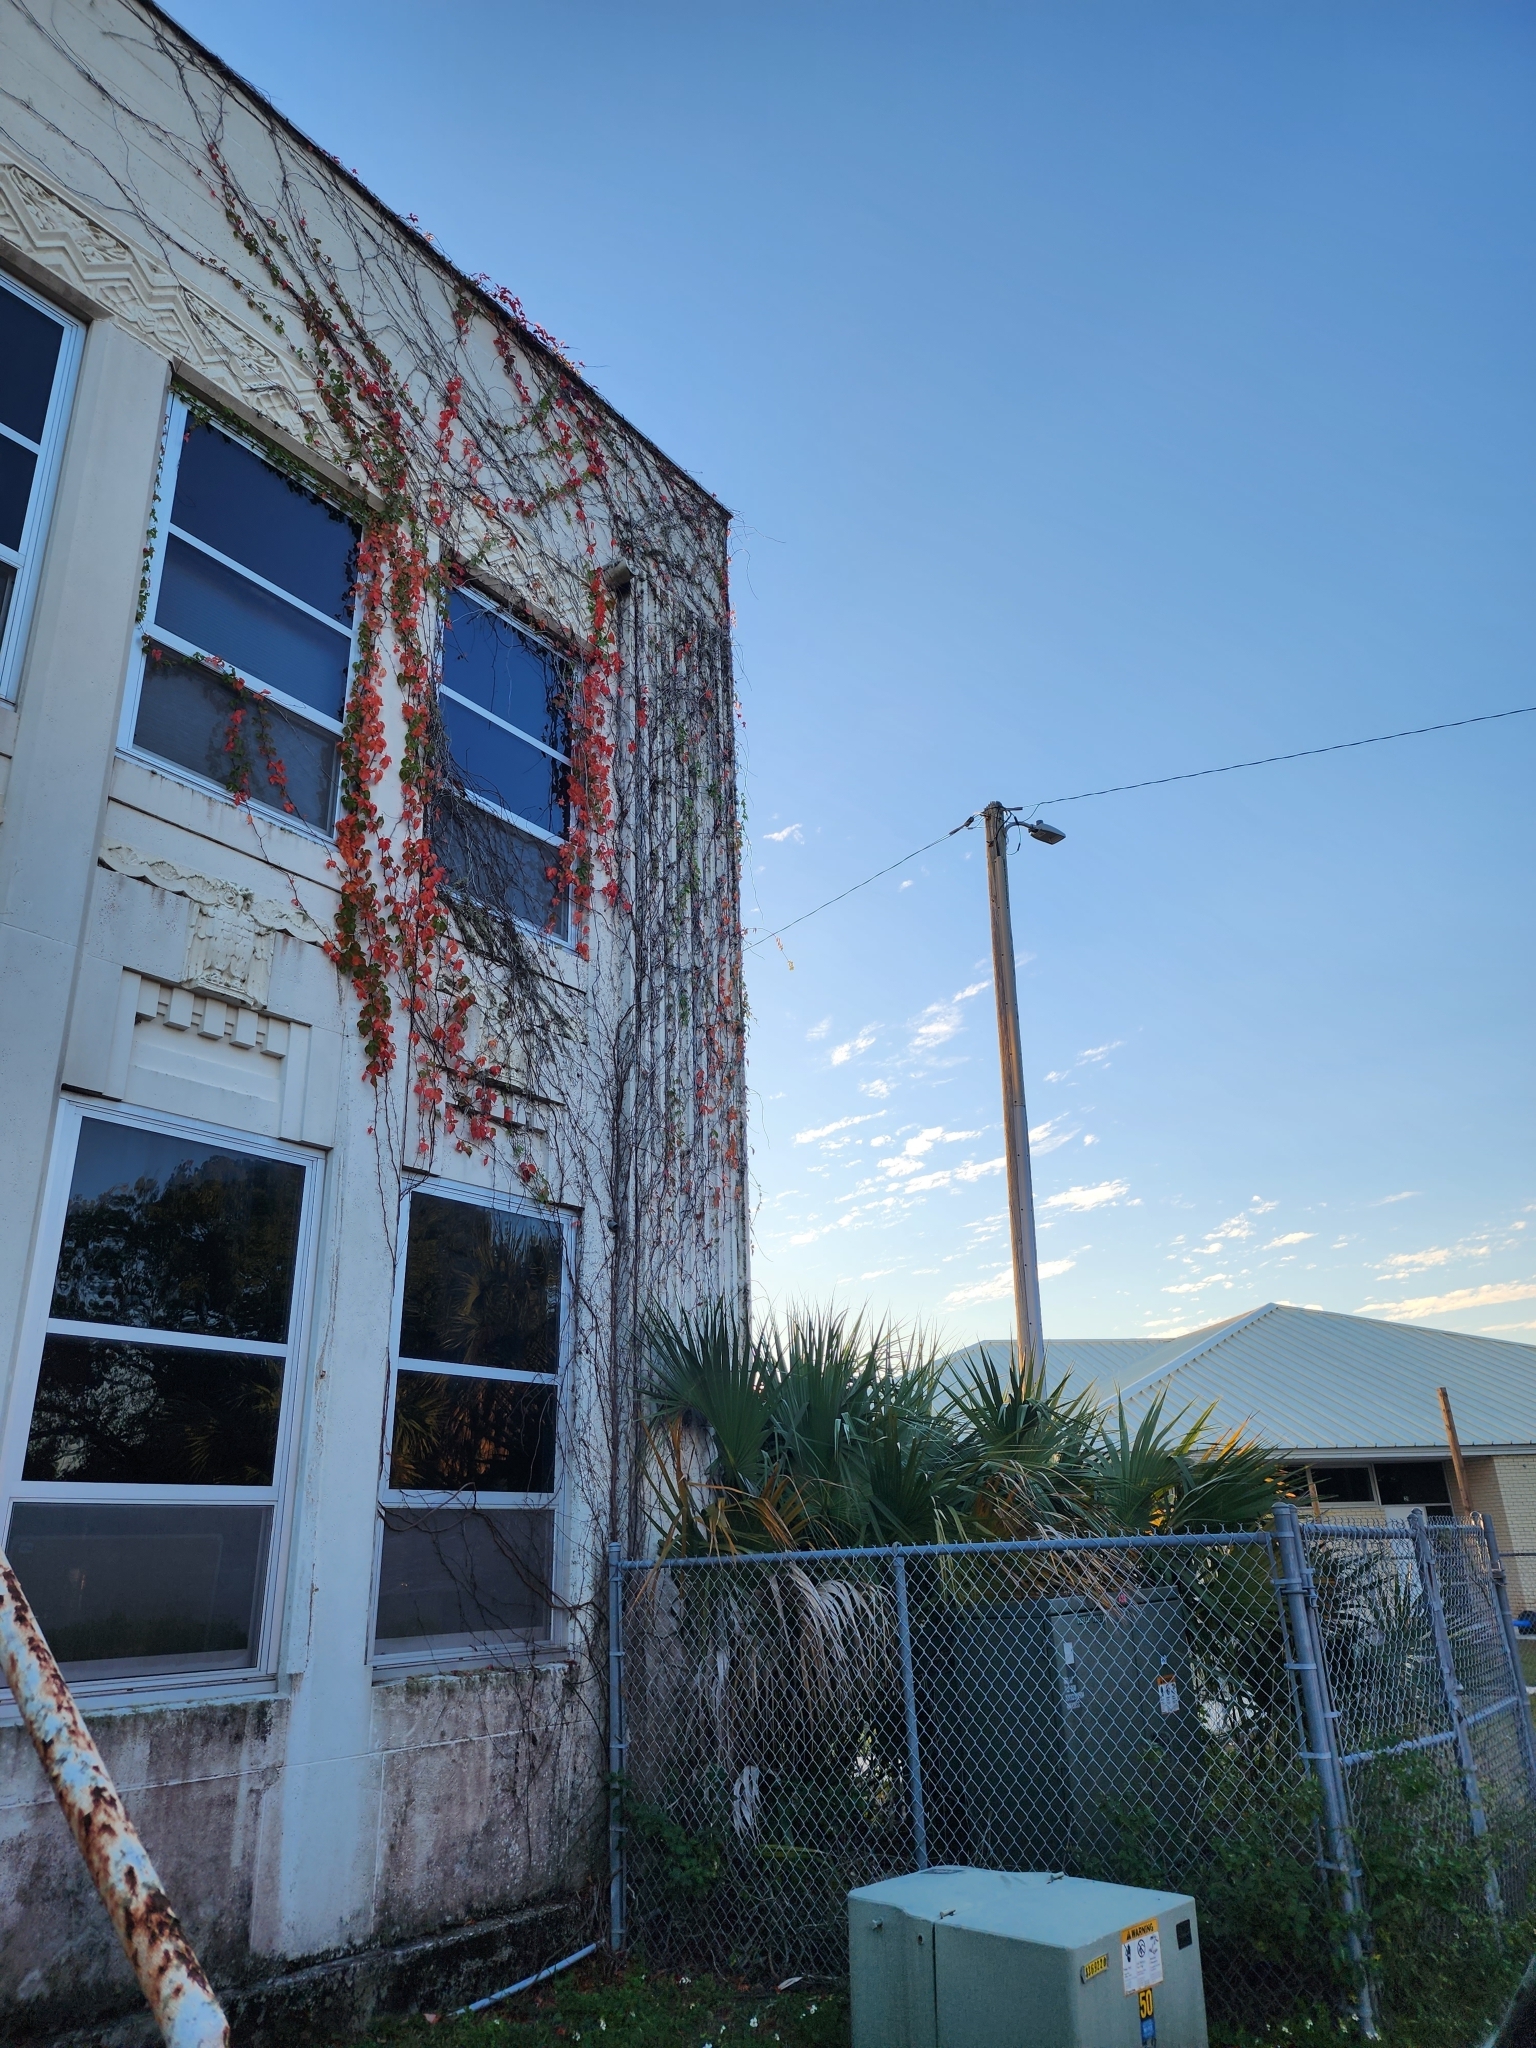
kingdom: Plantae
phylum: Tracheophyta
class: Magnoliopsida
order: Vitales
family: Vitaceae
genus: Parthenocissus
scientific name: Parthenocissus quinquefolia
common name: Virginia-creeper
